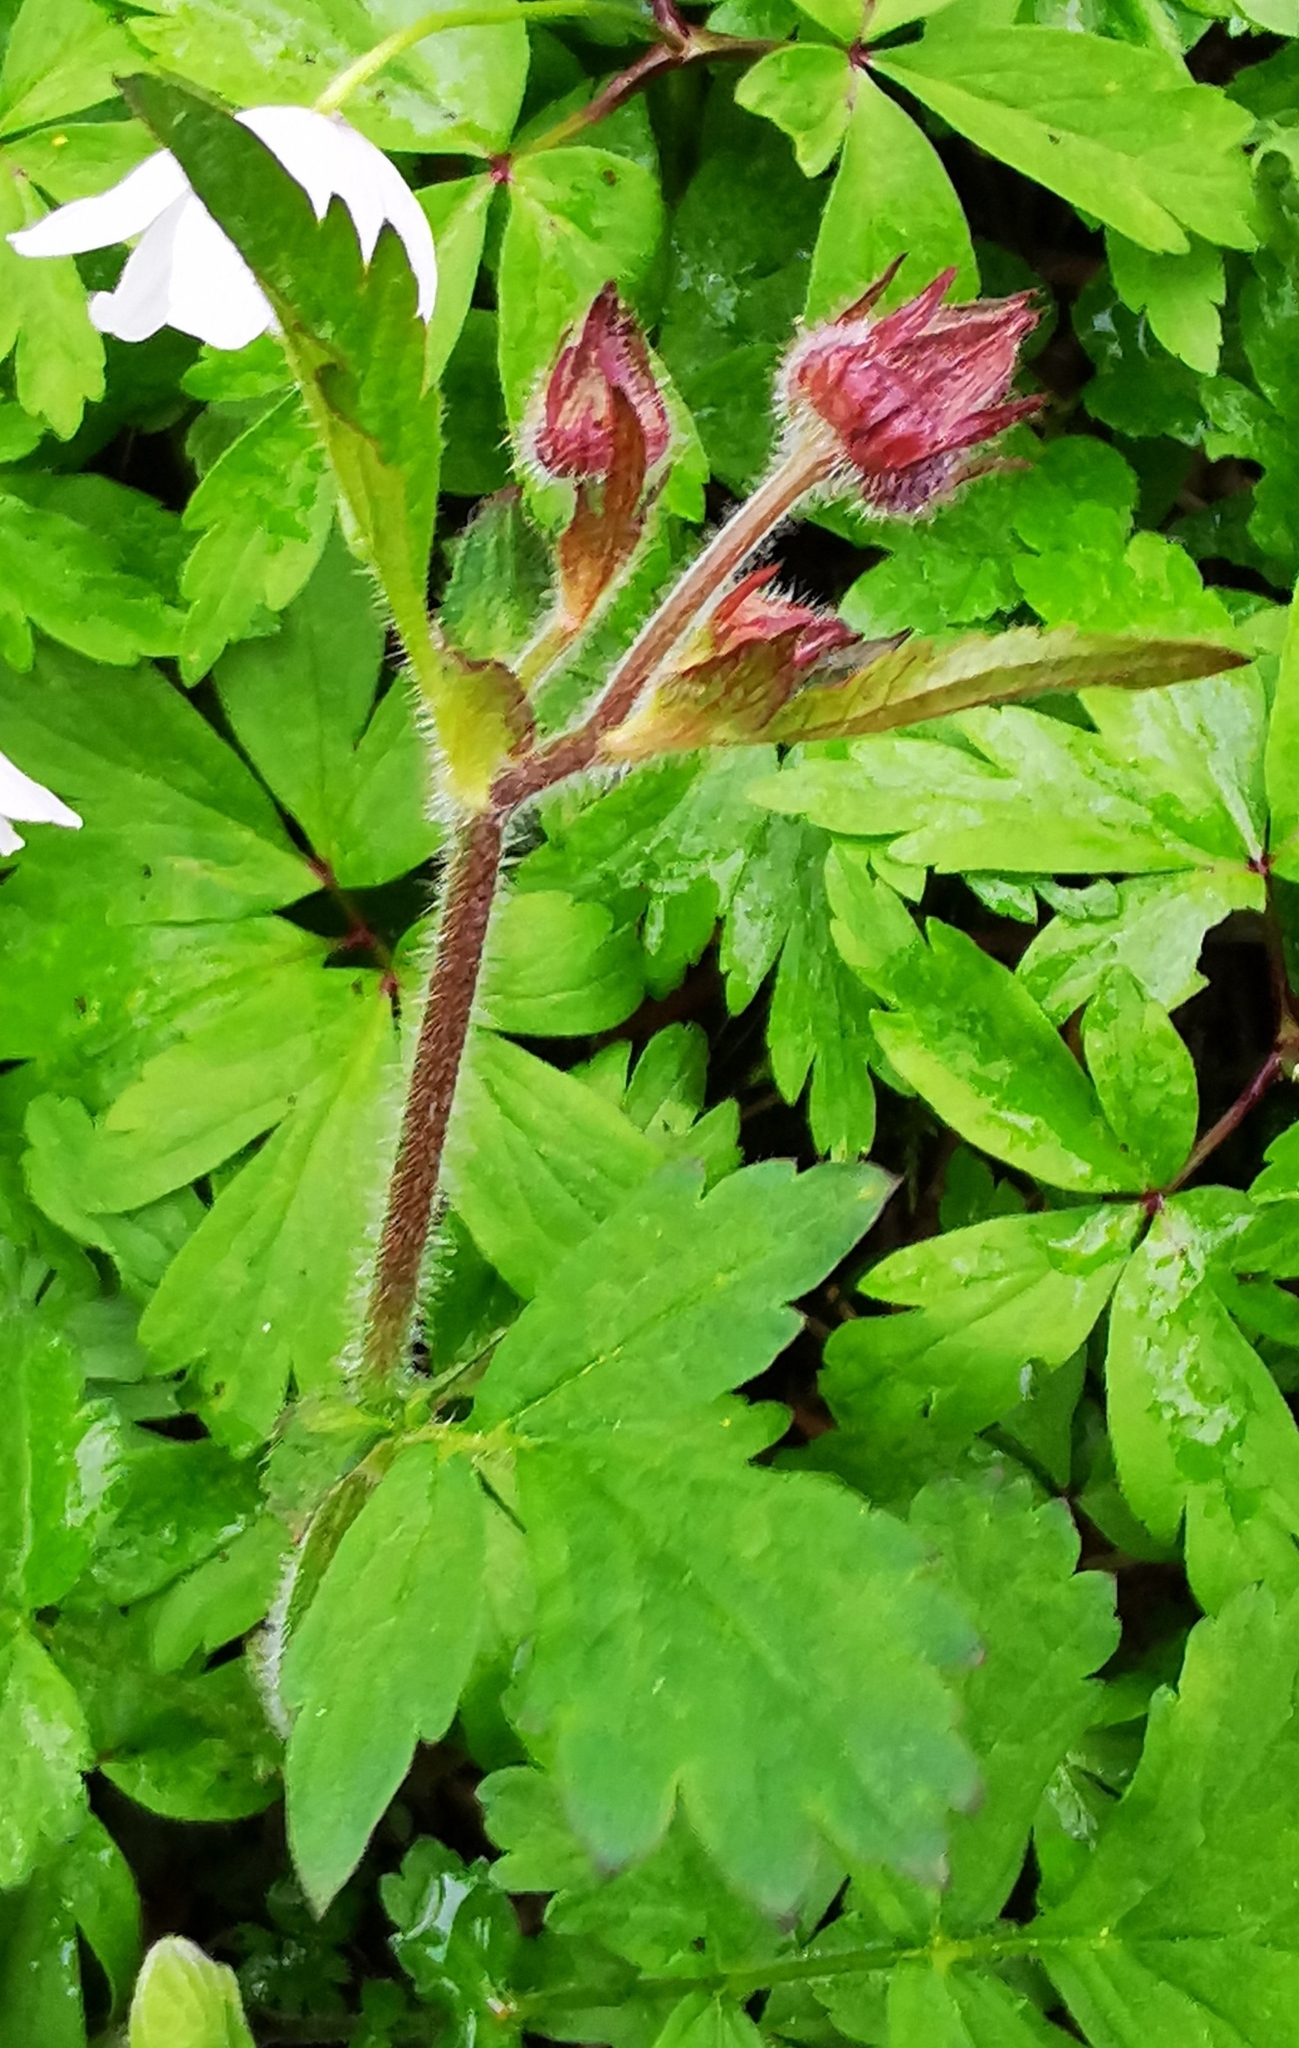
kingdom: Plantae
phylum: Tracheophyta
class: Magnoliopsida
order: Rosales
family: Rosaceae
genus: Geum
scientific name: Geum rivale
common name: Water avens
